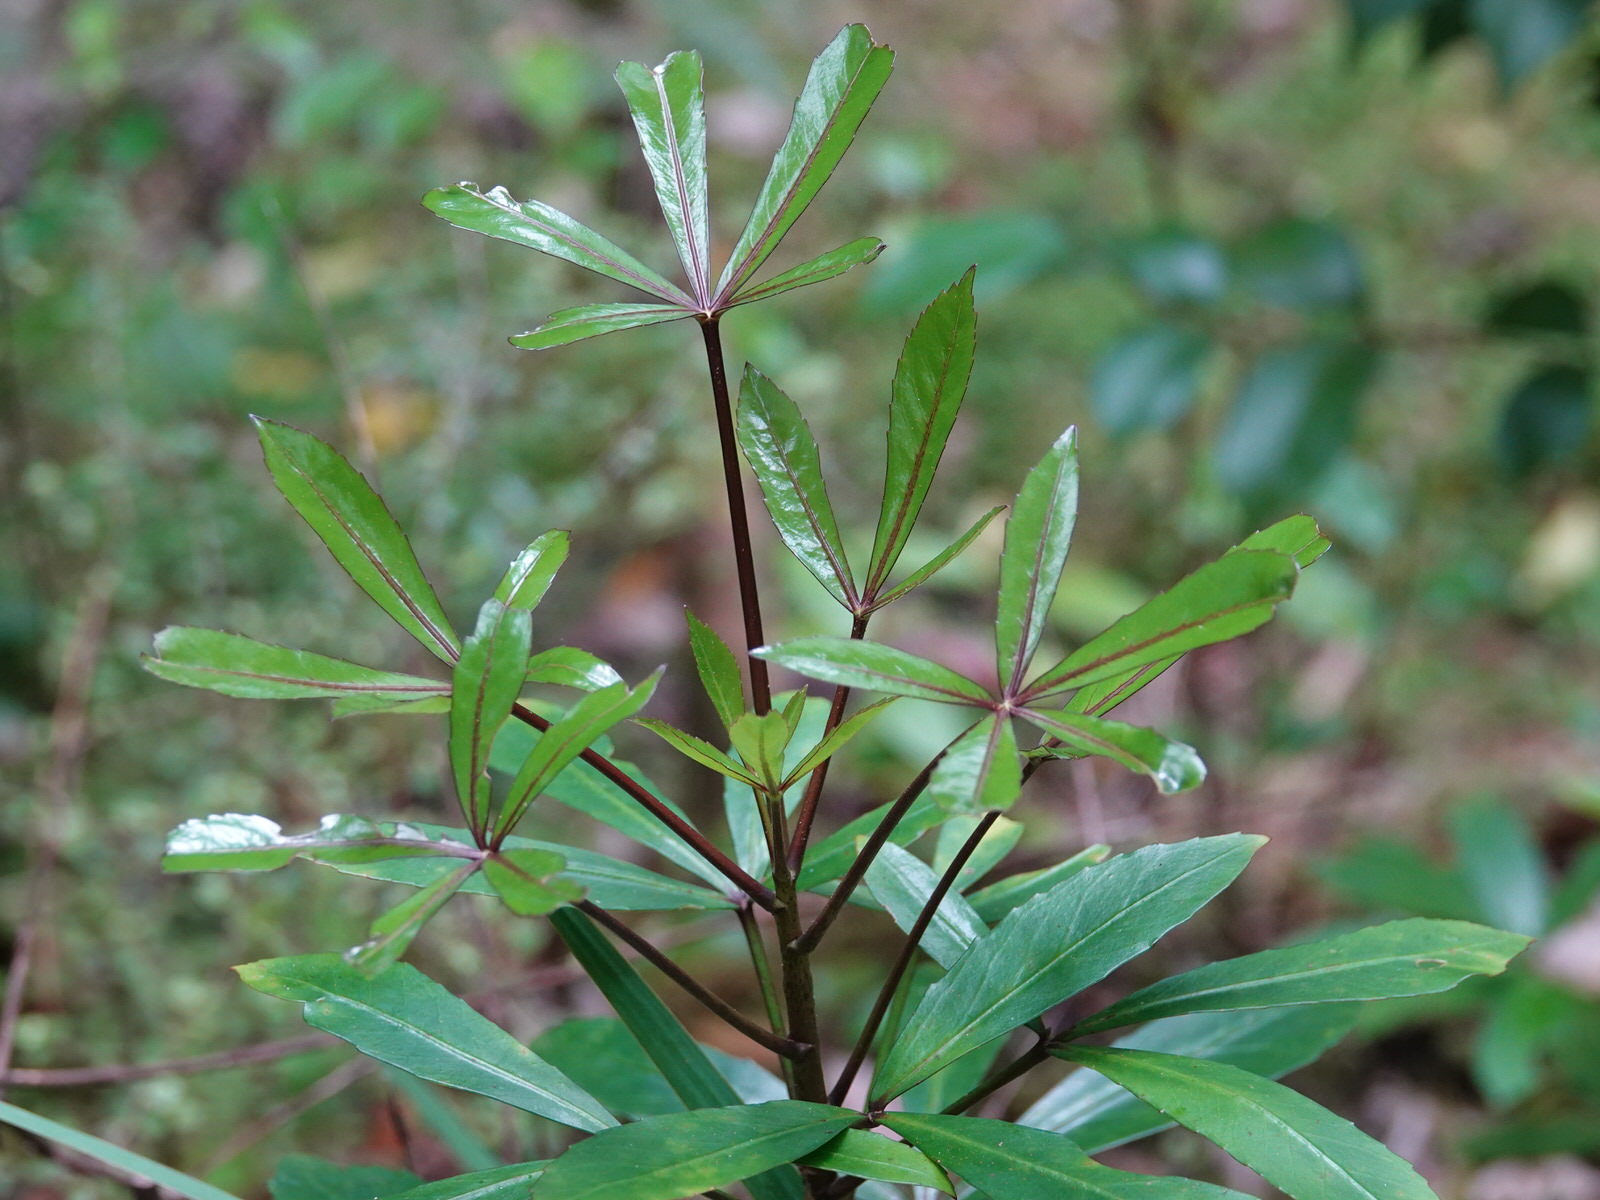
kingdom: Plantae
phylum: Tracheophyta
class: Magnoliopsida
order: Apiales
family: Araliaceae
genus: Pseudopanax
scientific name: Pseudopanax
